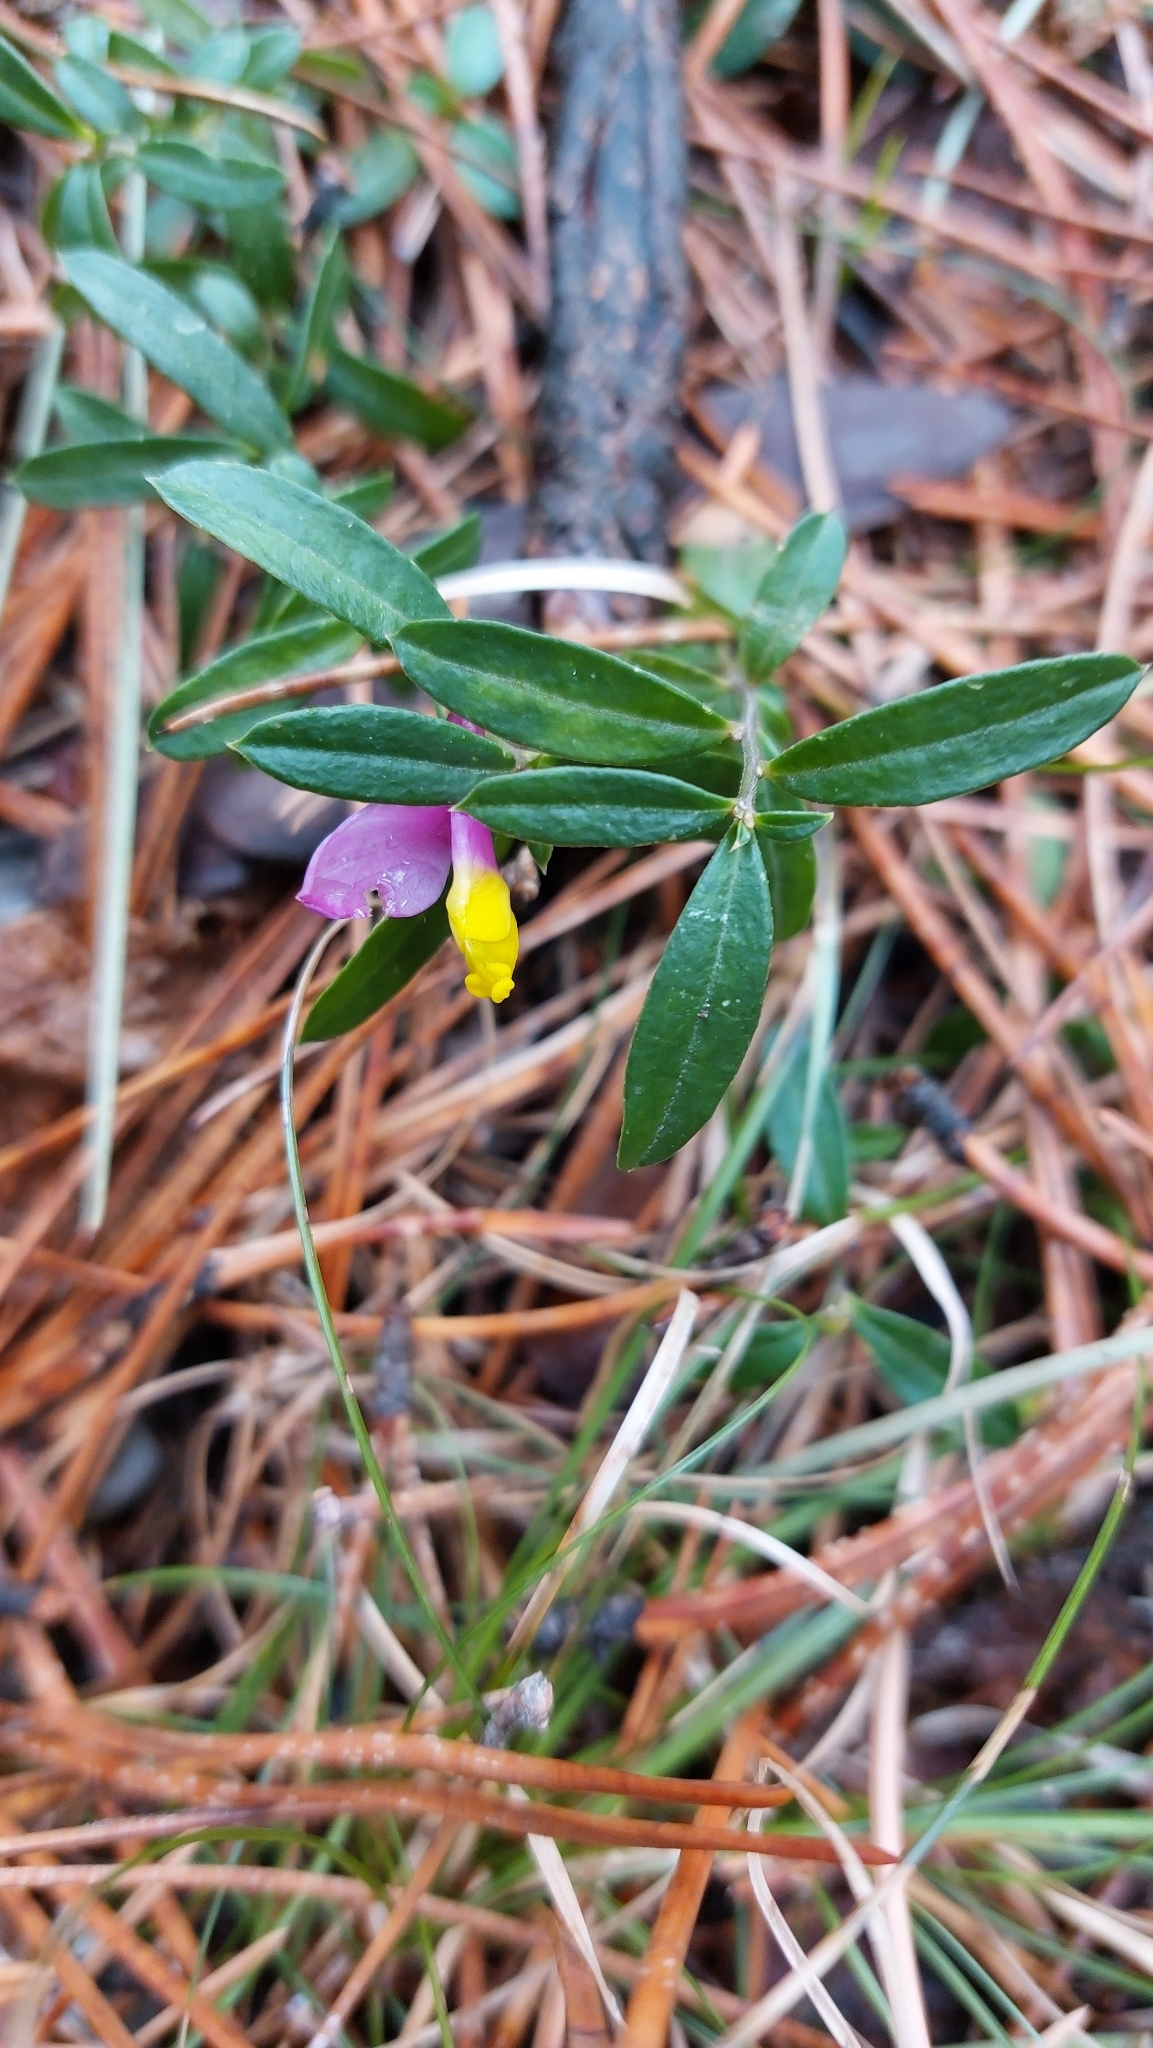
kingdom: Plantae
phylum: Tracheophyta
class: Magnoliopsida
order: Fabales
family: Polygalaceae
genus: Polygaloides
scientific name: Polygaloides chamaebuxus
